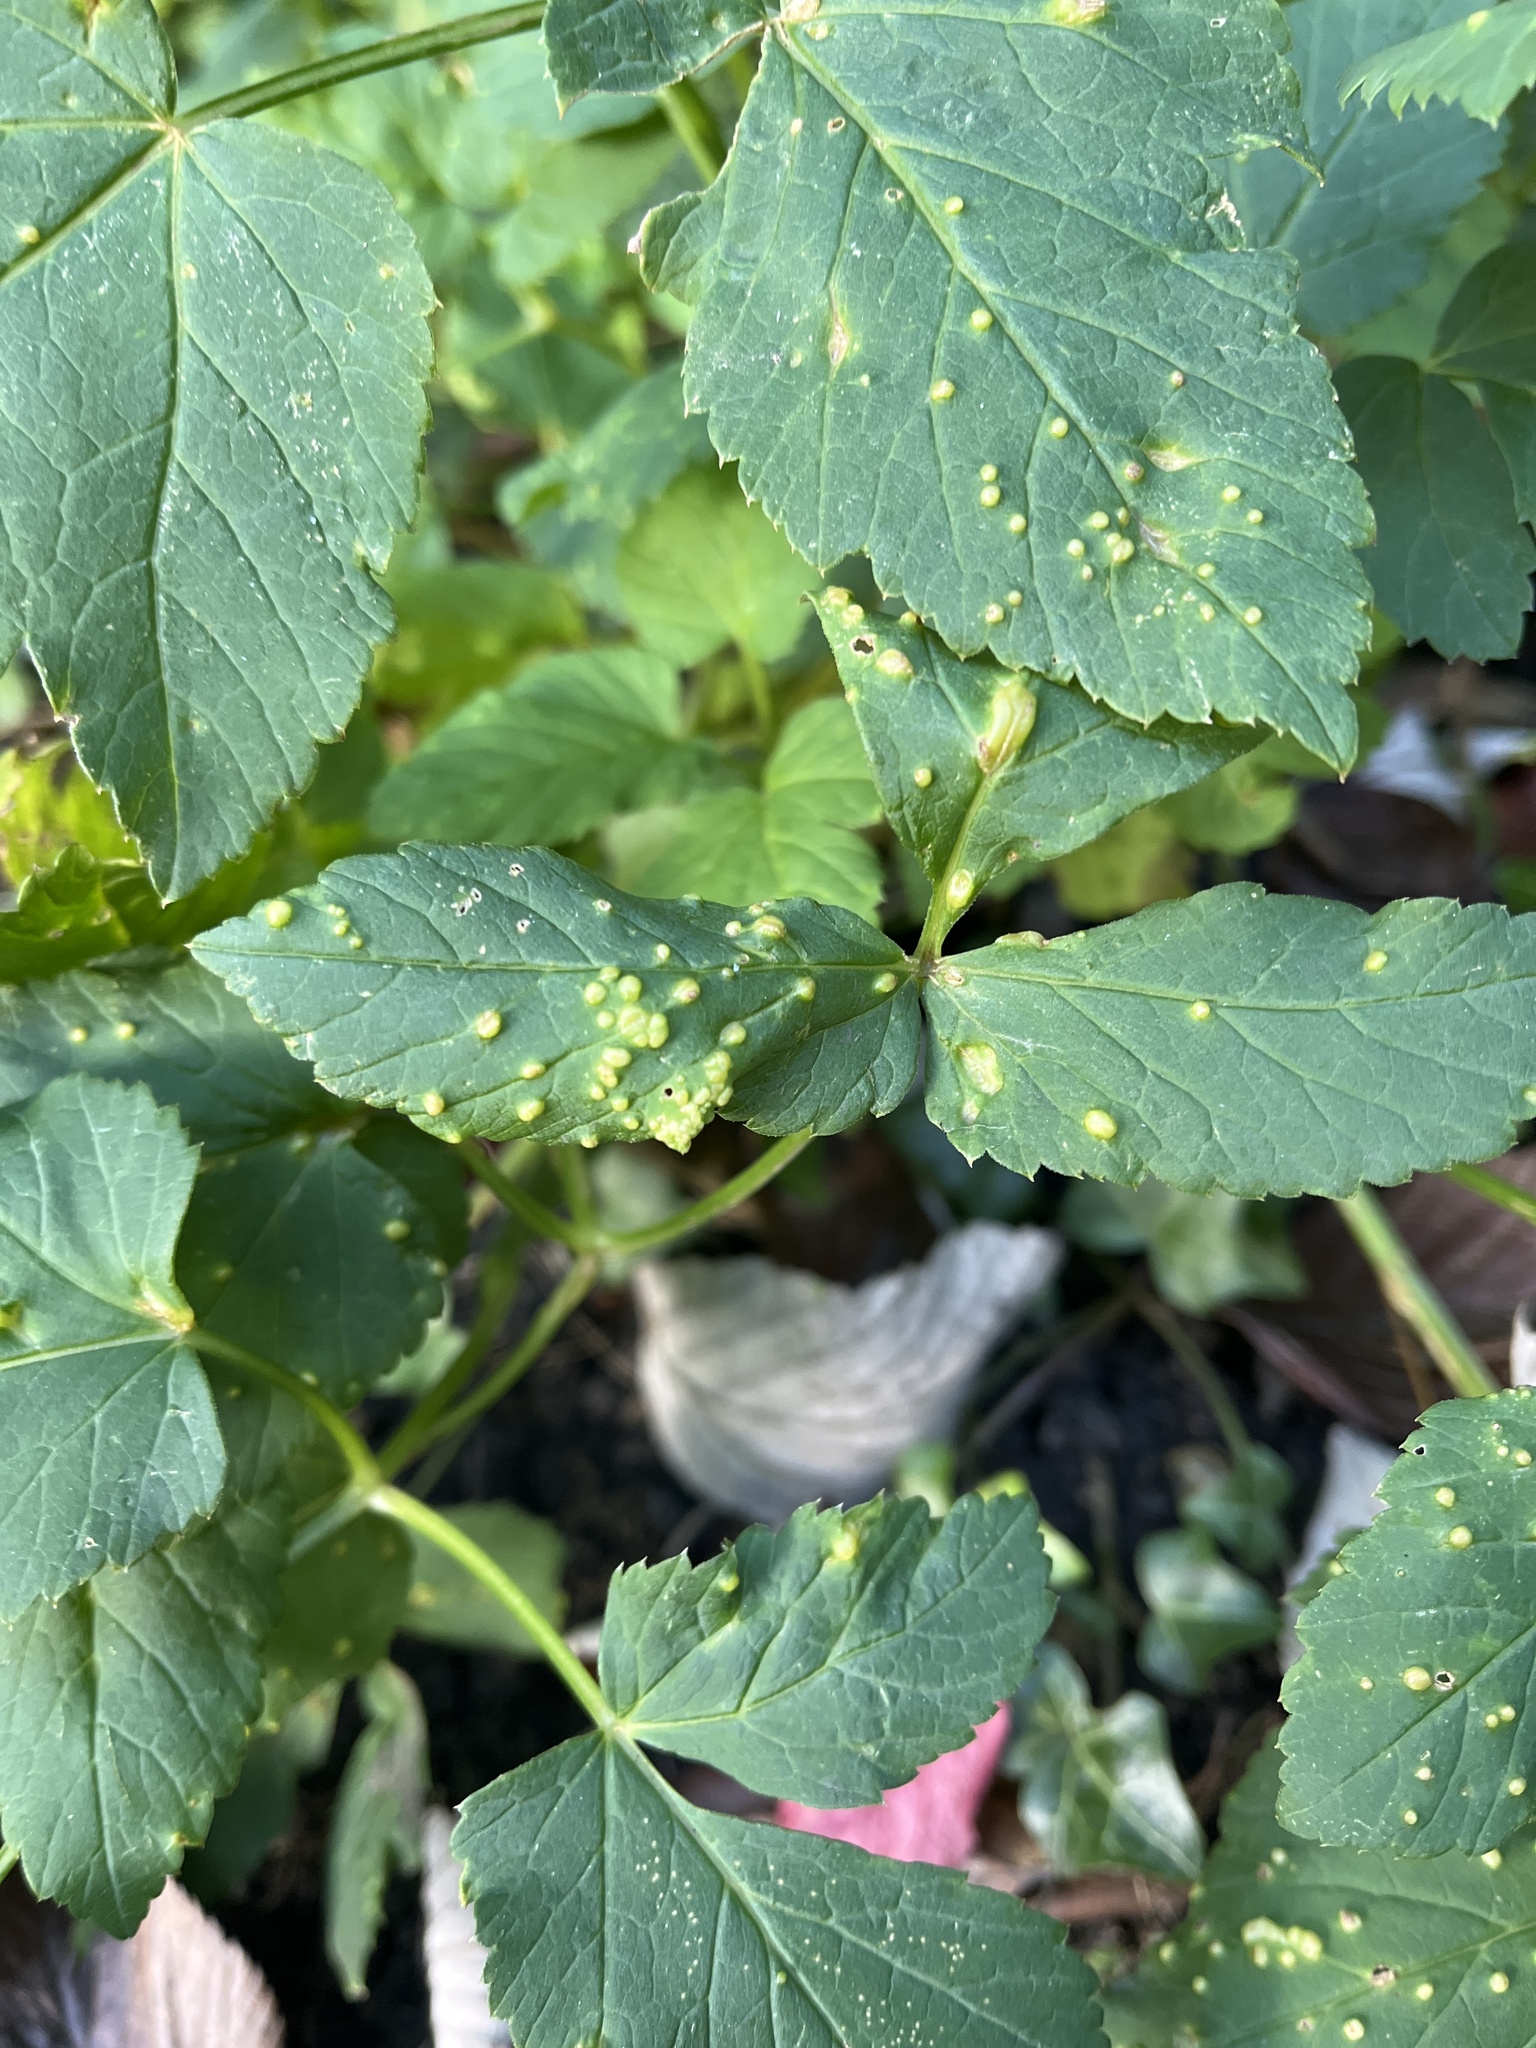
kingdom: Fungi
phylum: Ascomycota
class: Taphrinomycetes
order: Taphrinales
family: Taphrinaceae
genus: Protomyces
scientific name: Protomyces macrosporus
